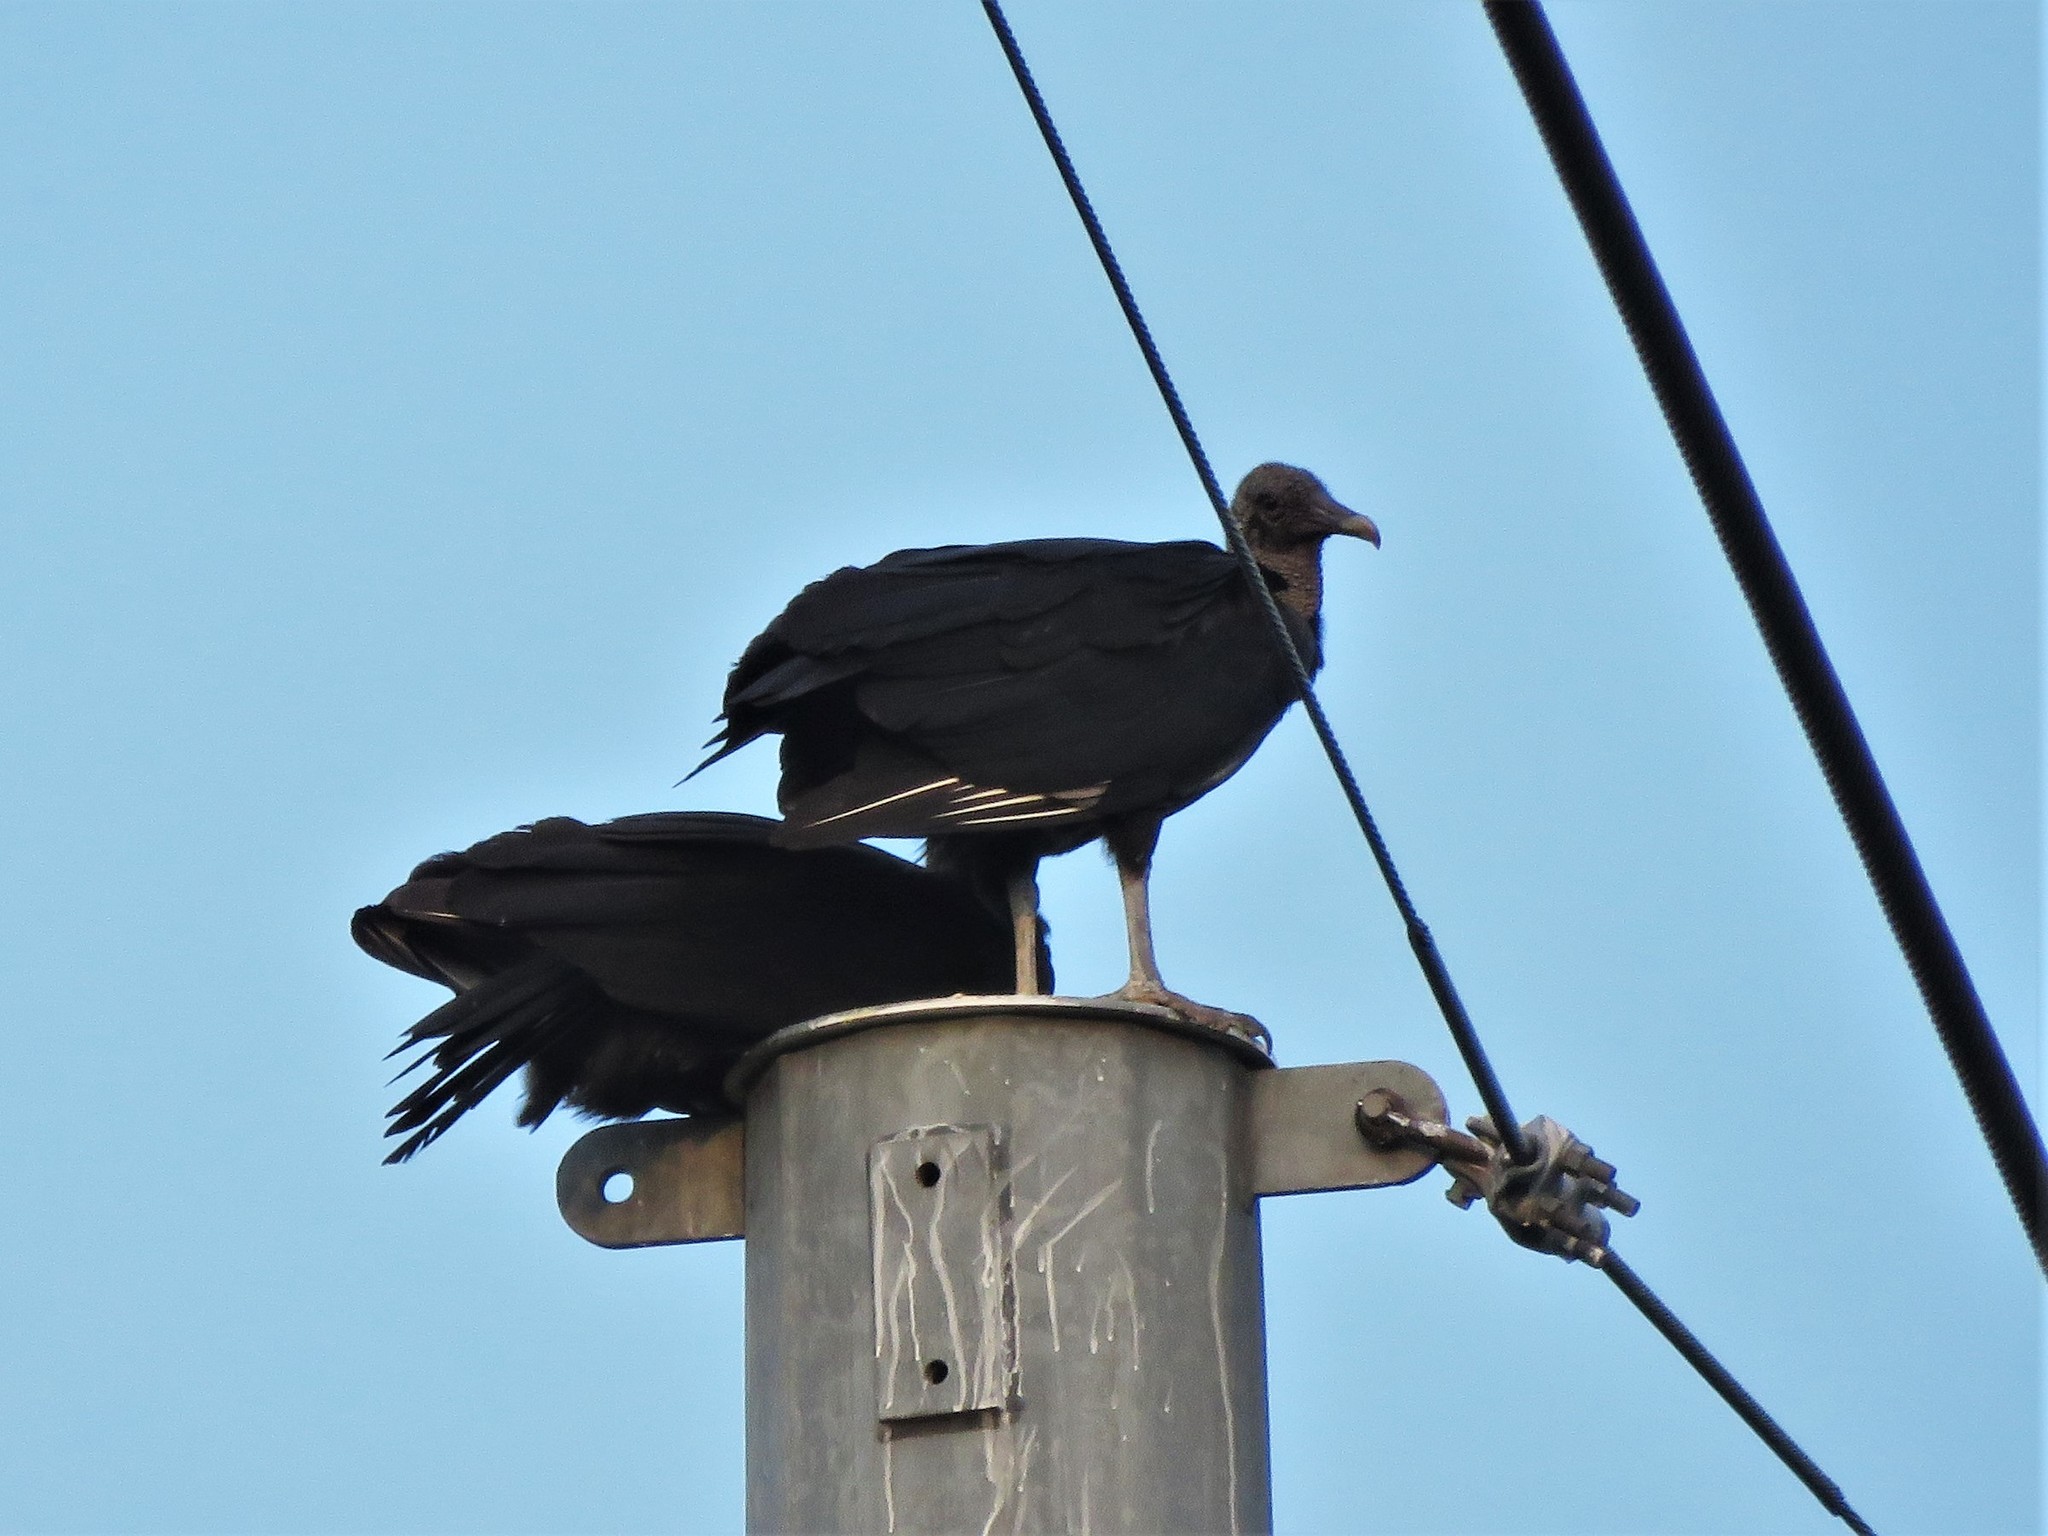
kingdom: Animalia
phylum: Chordata
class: Aves
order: Accipitriformes
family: Cathartidae
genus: Coragyps
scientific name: Coragyps atratus
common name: Black vulture
